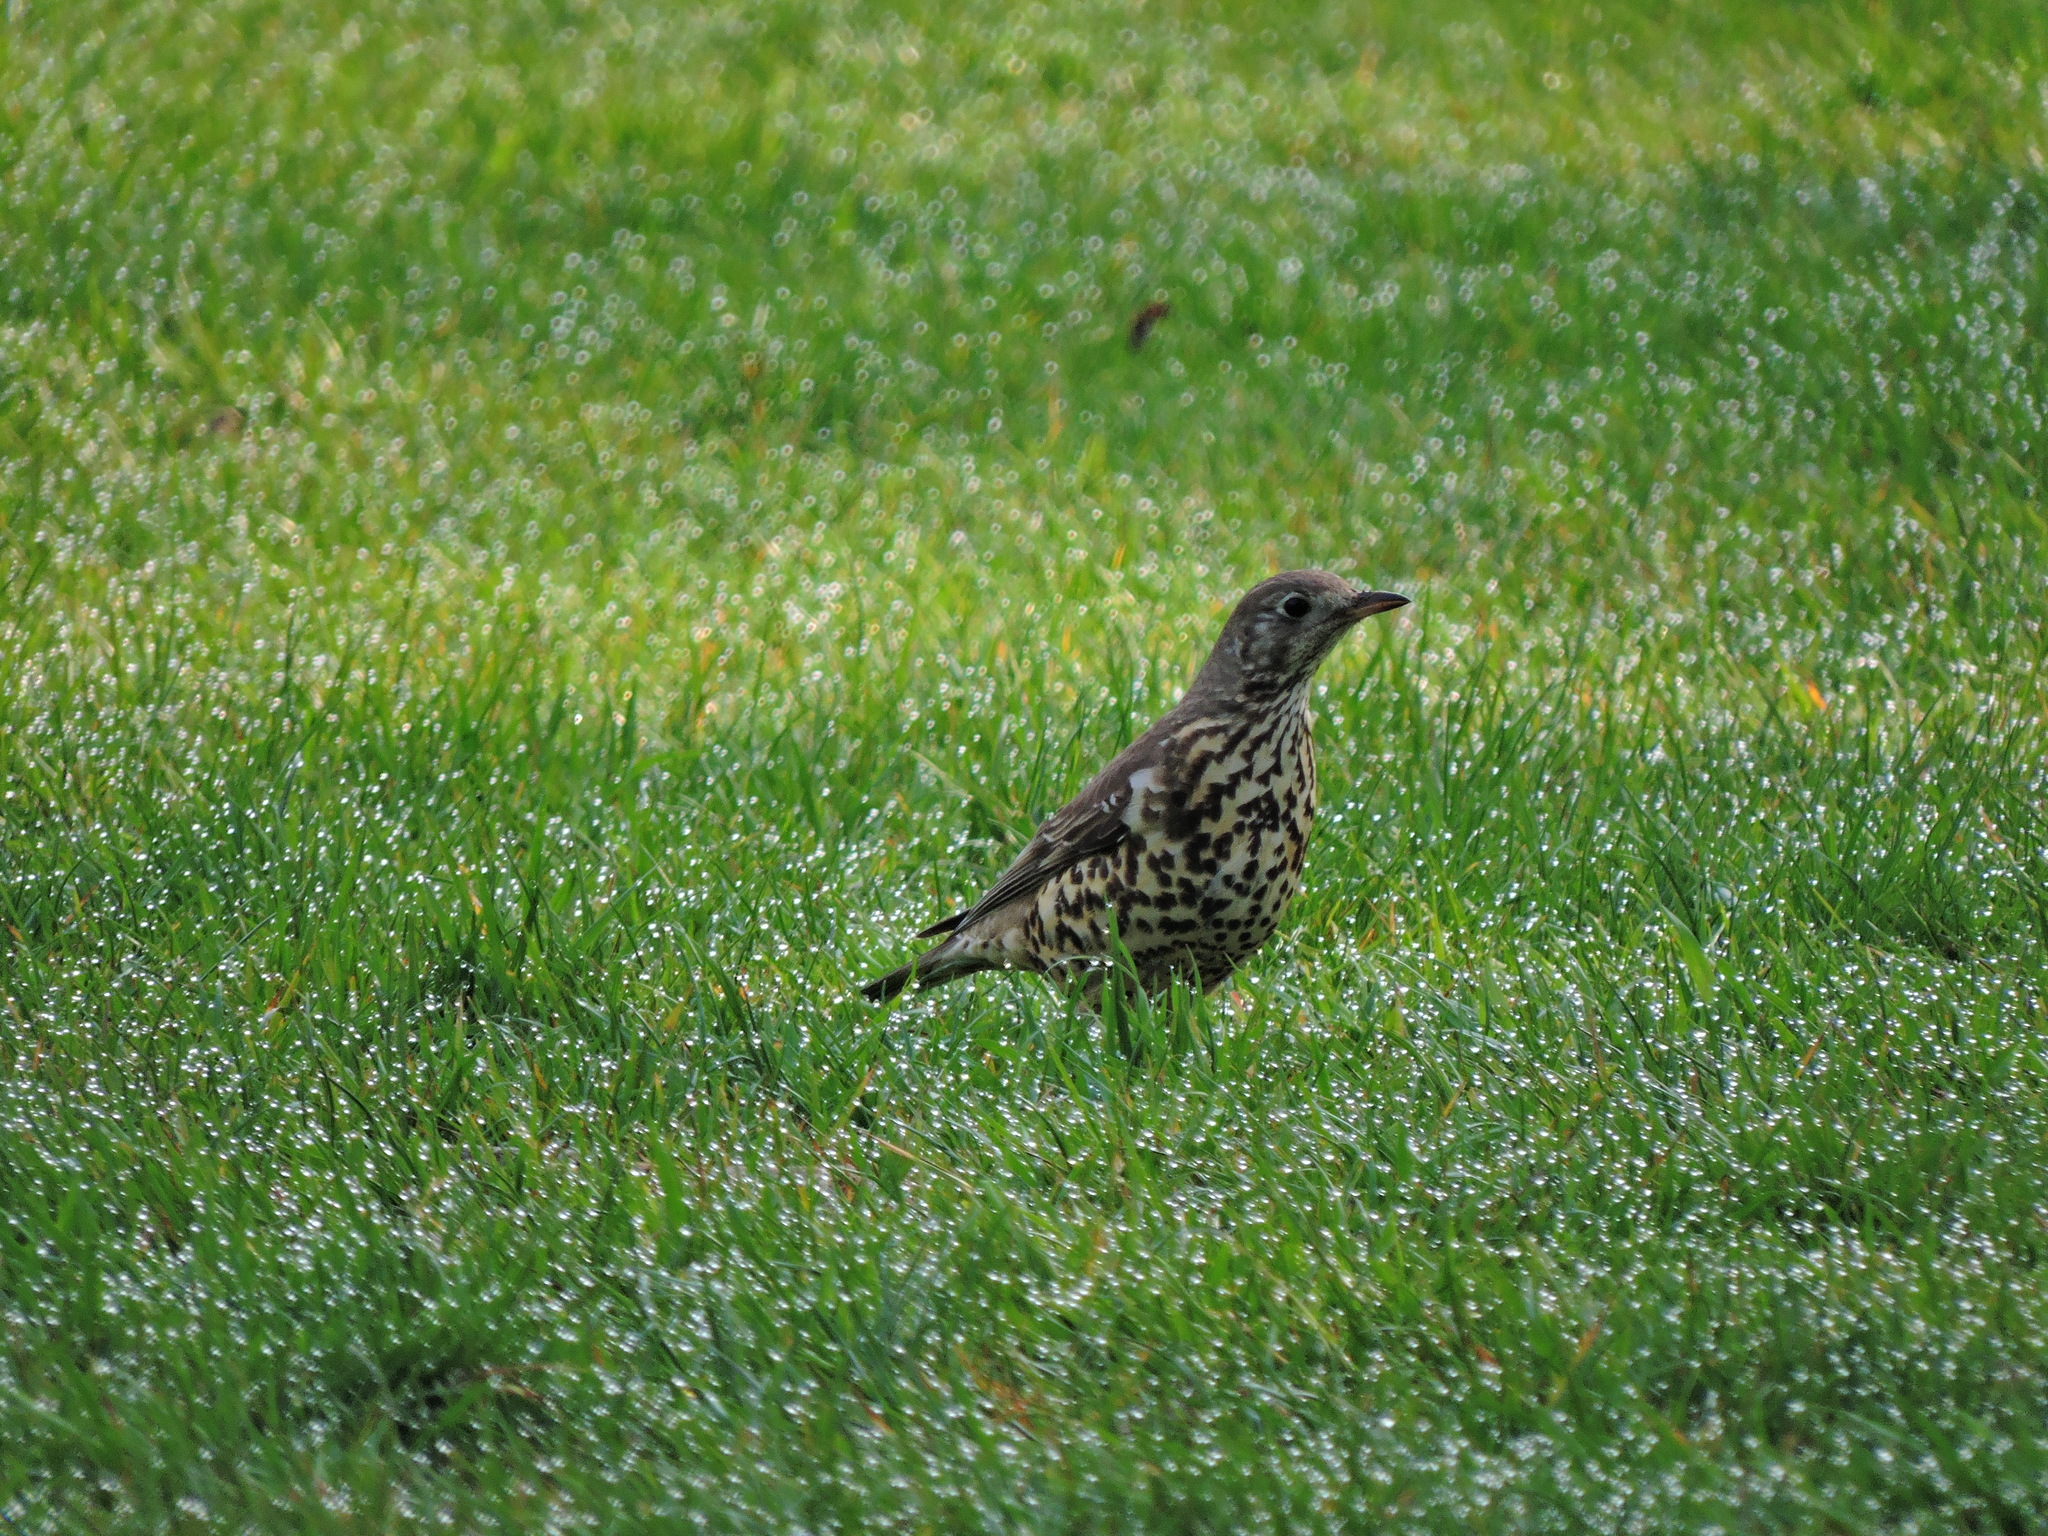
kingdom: Animalia
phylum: Chordata
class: Aves
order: Passeriformes
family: Turdidae
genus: Turdus
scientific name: Turdus viscivorus
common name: Mistle thrush
